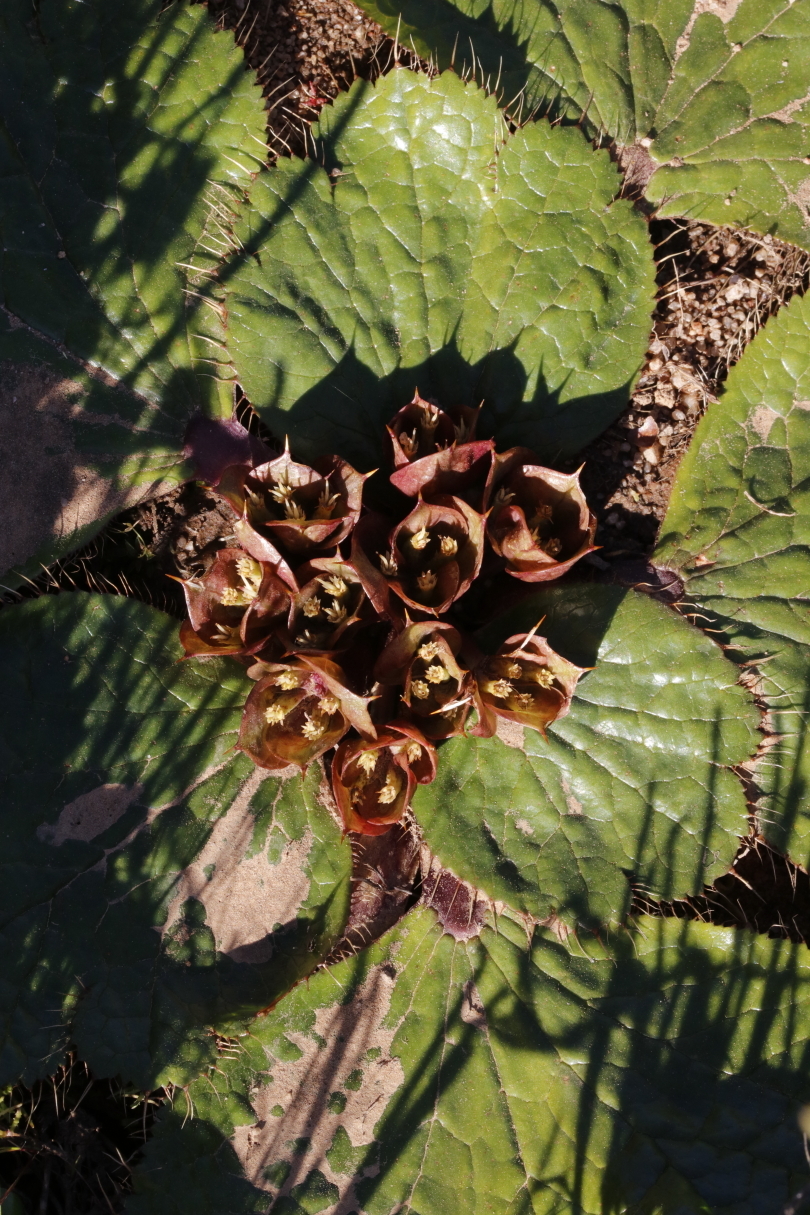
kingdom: Plantae
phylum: Tracheophyta
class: Magnoliopsida
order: Apiales
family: Apiaceae
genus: Arctopus
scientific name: Arctopus monacanthus
